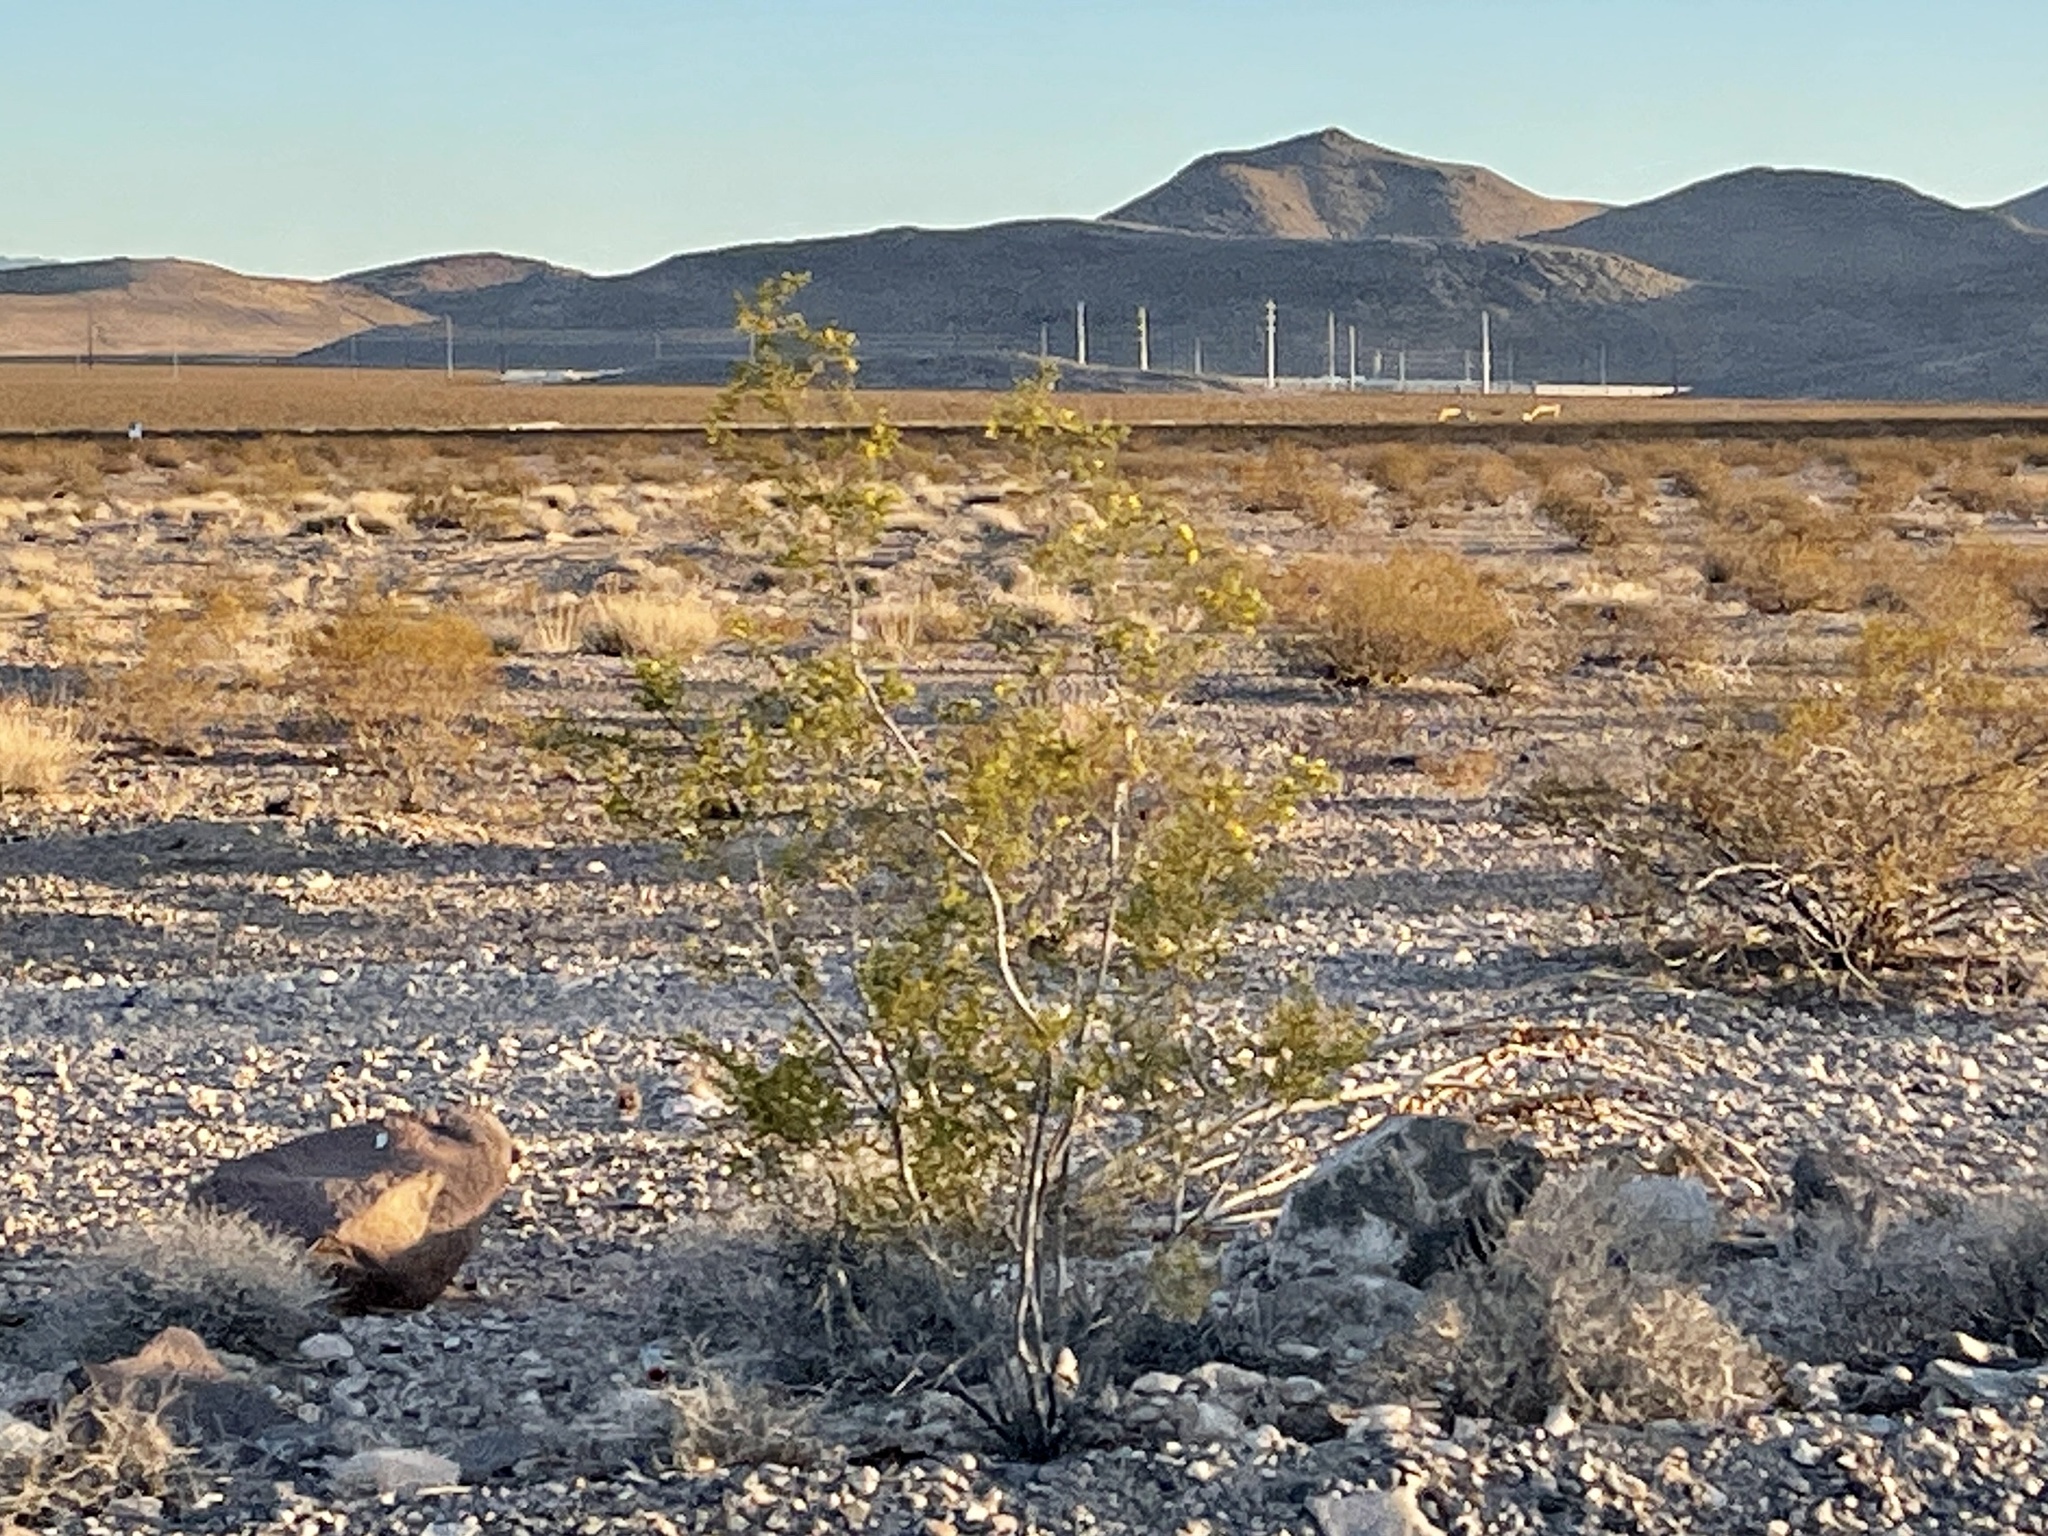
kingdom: Plantae
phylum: Tracheophyta
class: Magnoliopsida
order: Zygophyllales
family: Zygophyllaceae
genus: Larrea
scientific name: Larrea tridentata
